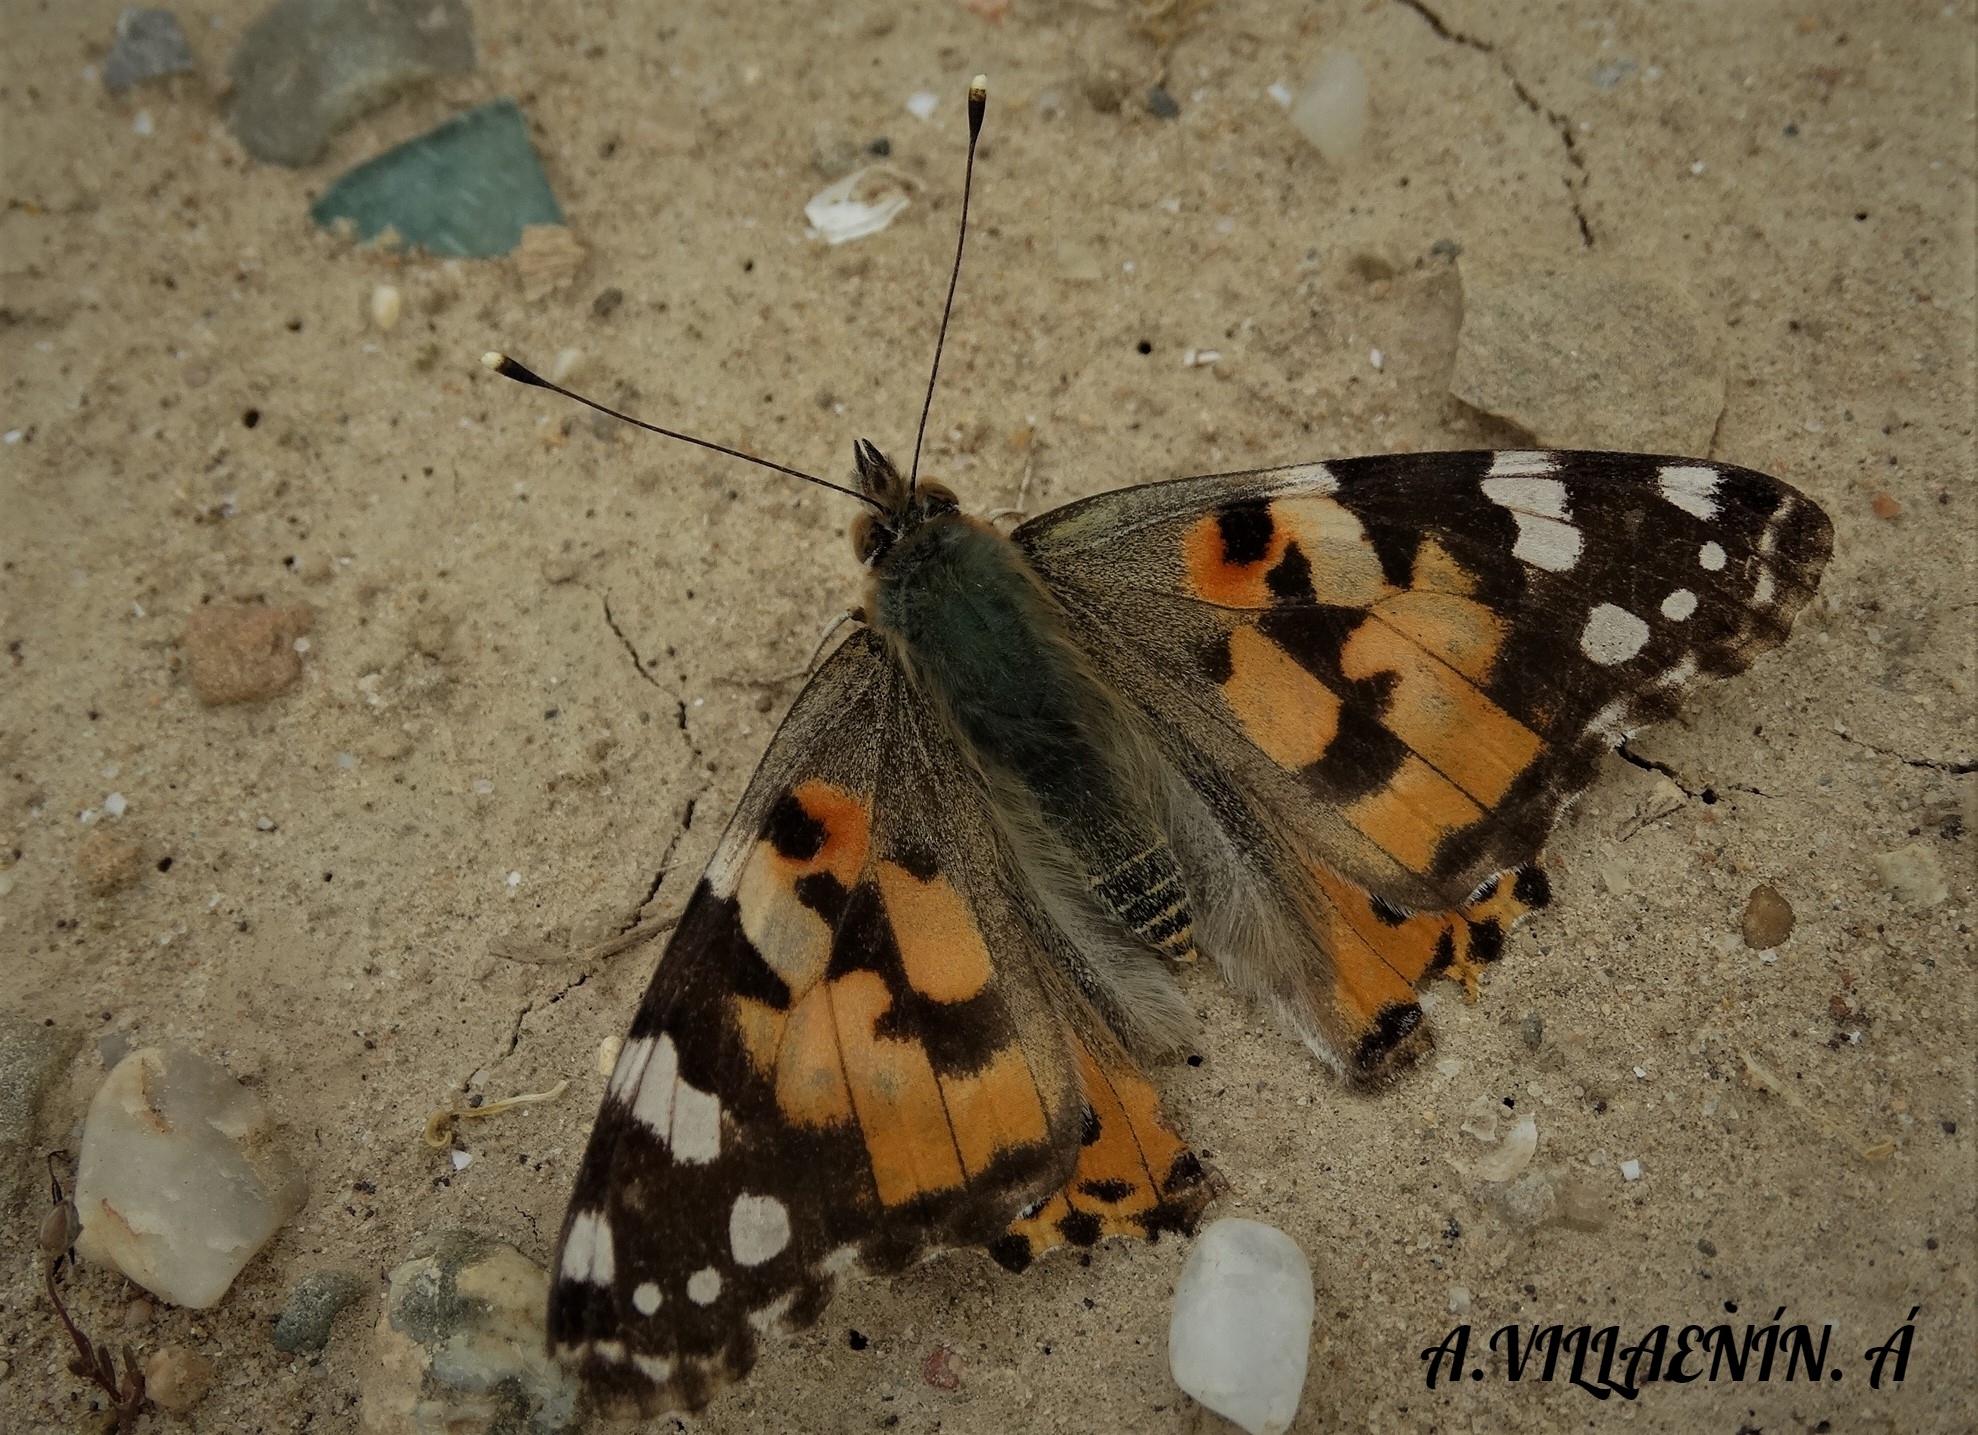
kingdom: Animalia
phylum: Arthropoda
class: Insecta
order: Lepidoptera
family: Nymphalidae
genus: Vanessa
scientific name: Vanessa cardui
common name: Painted lady
